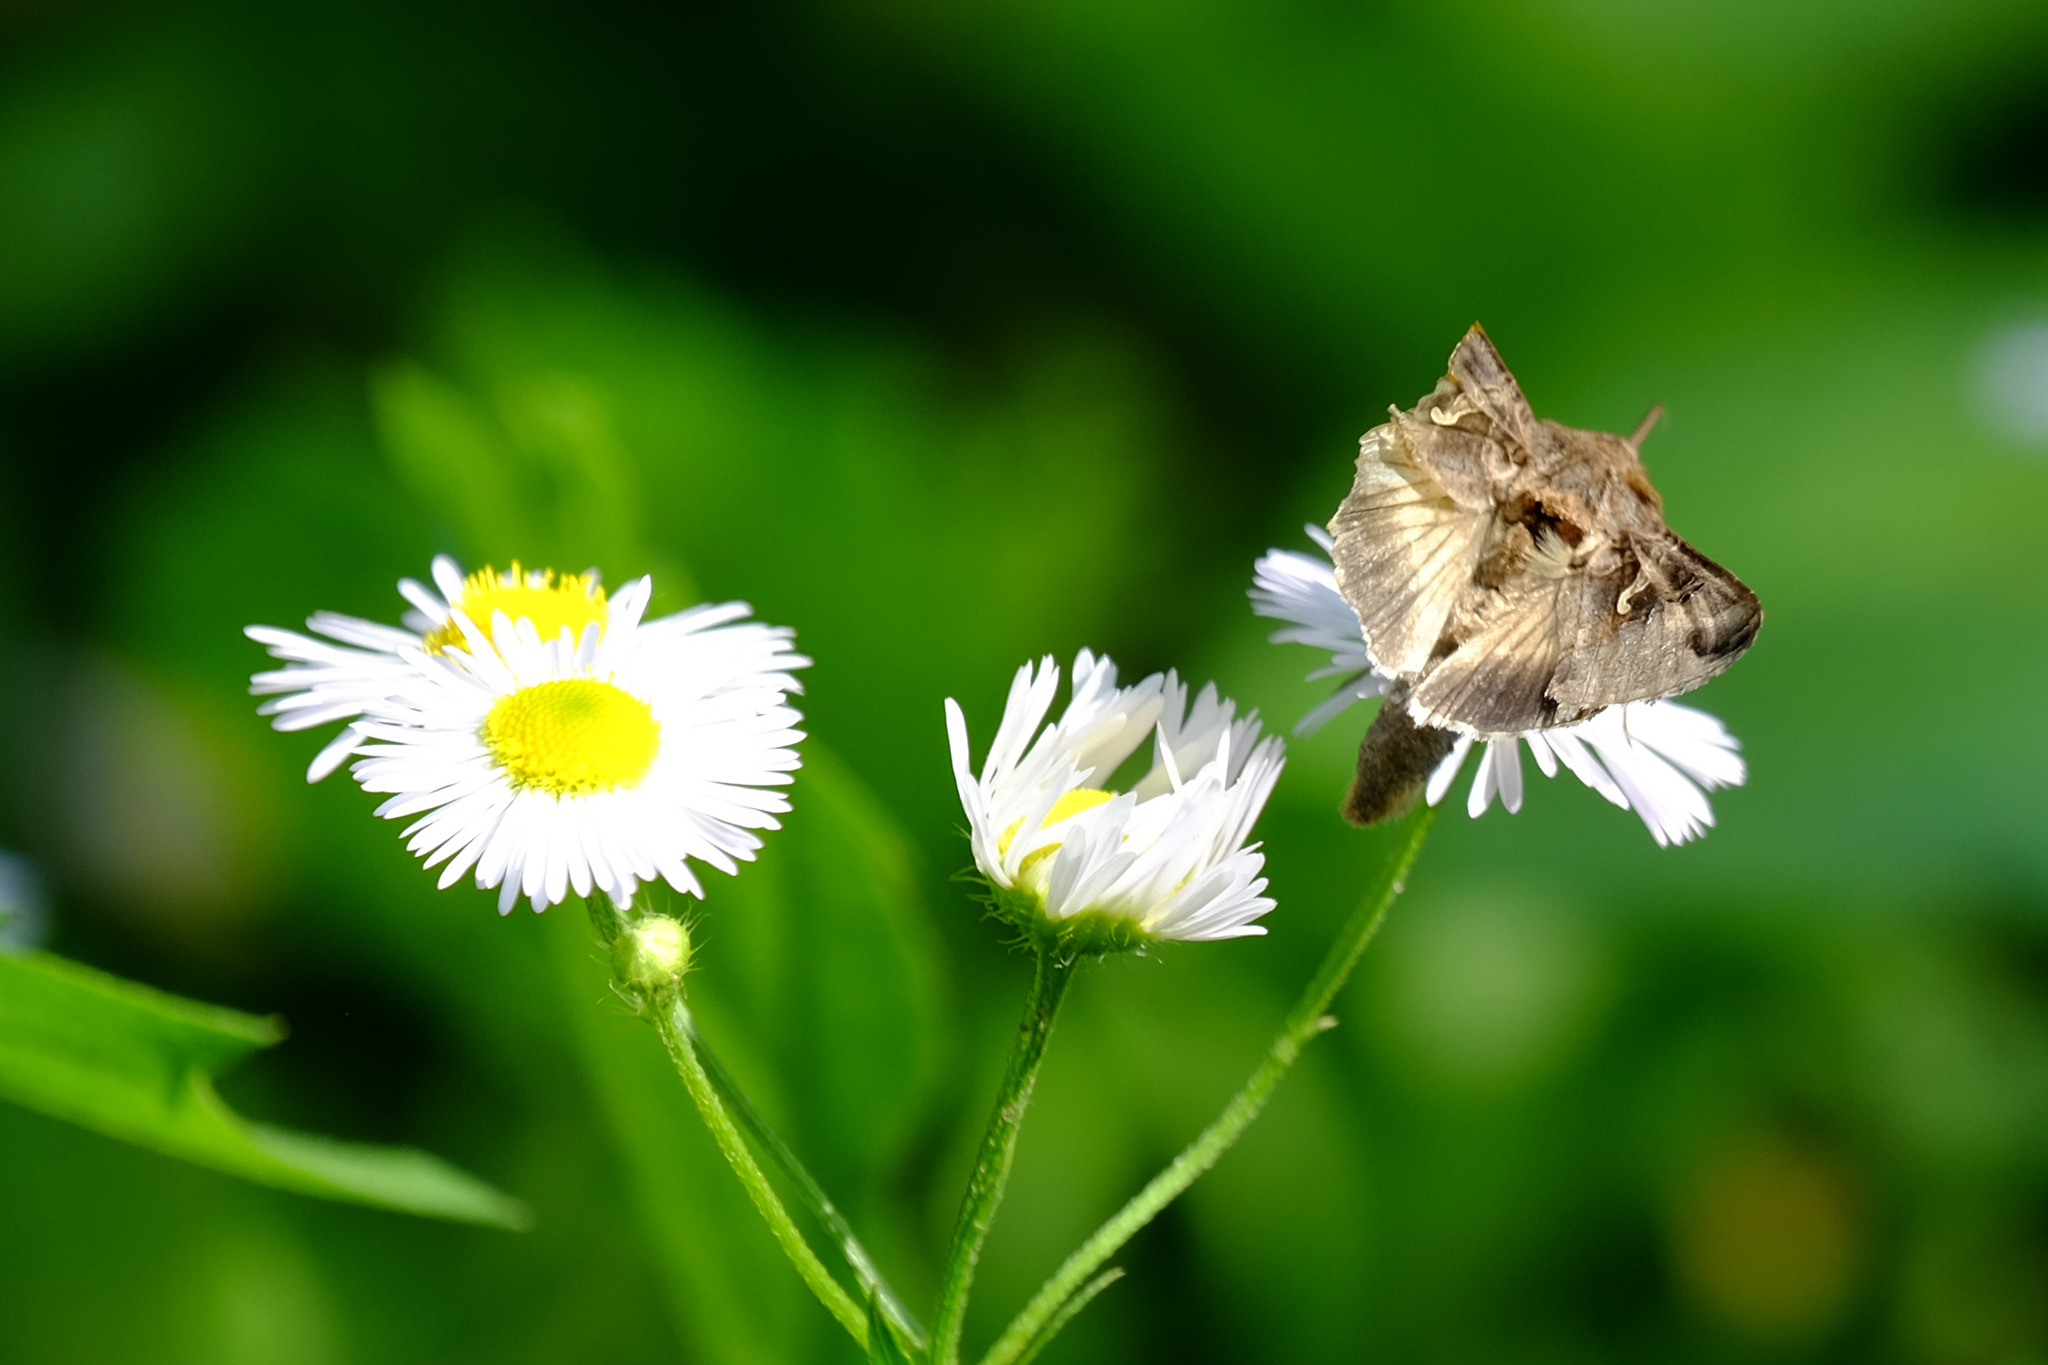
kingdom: Animalia
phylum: Arthropoda
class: Insecta
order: Lepidoptera
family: Noctuidae
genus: Autographa
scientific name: Autographa gamma
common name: Silver y
